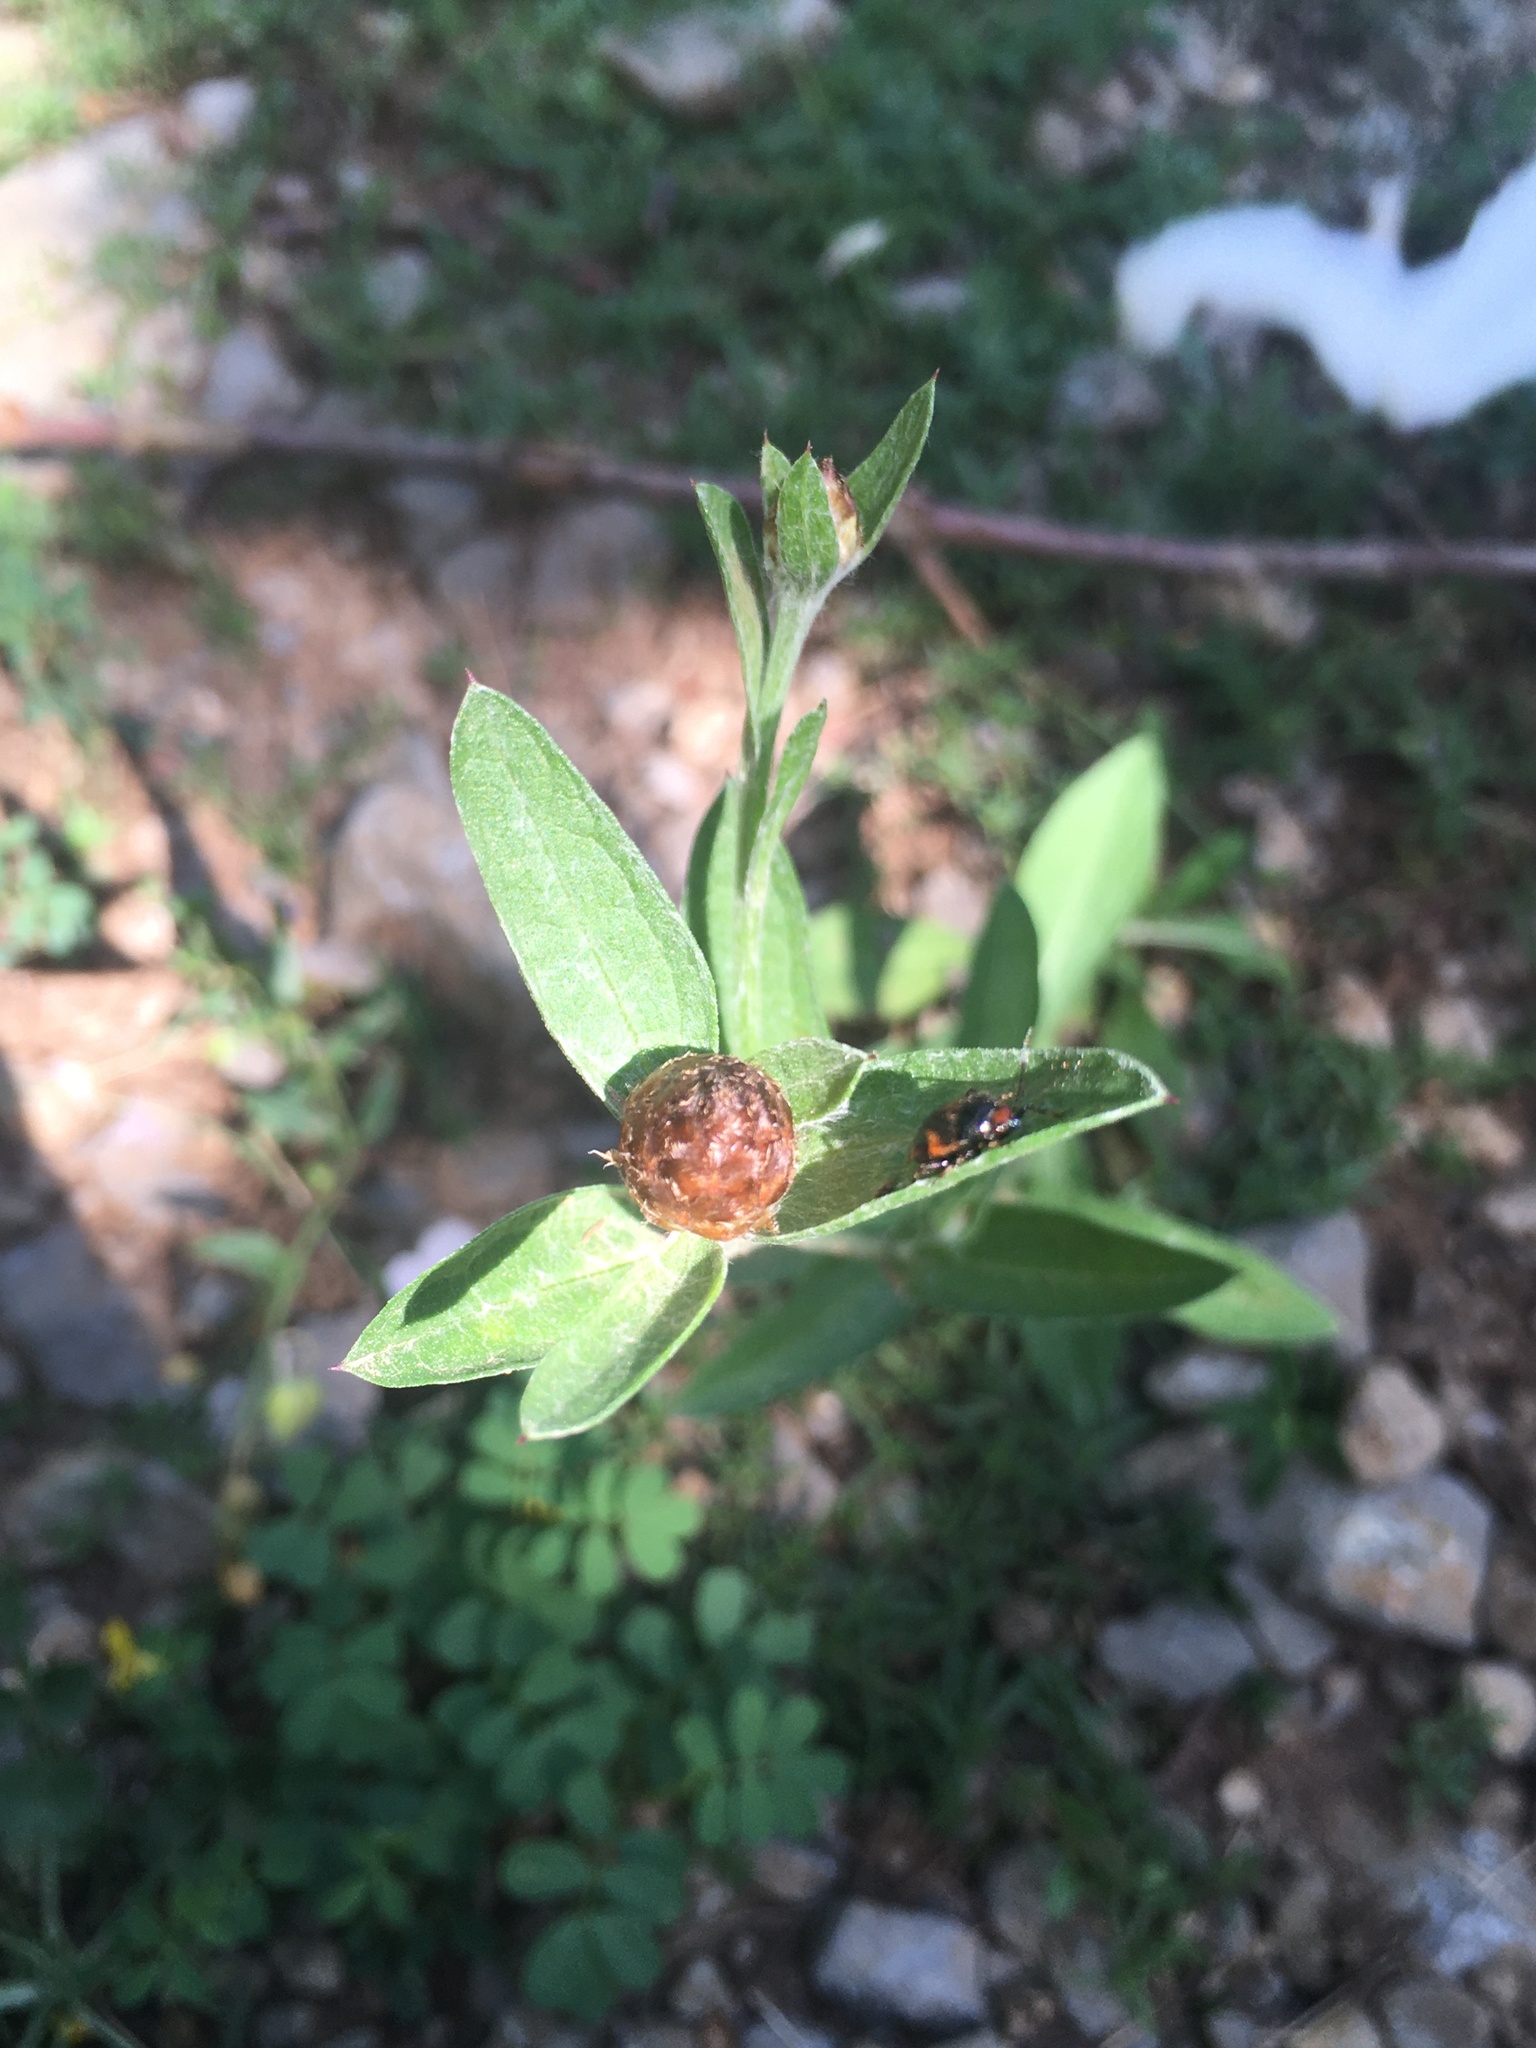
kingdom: Plantae
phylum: Tracheophyta
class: Magnoliopsida
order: Asterales
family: Asteraceae
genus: Centaurea
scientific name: Centaurea jacea
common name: Brown knapweed
